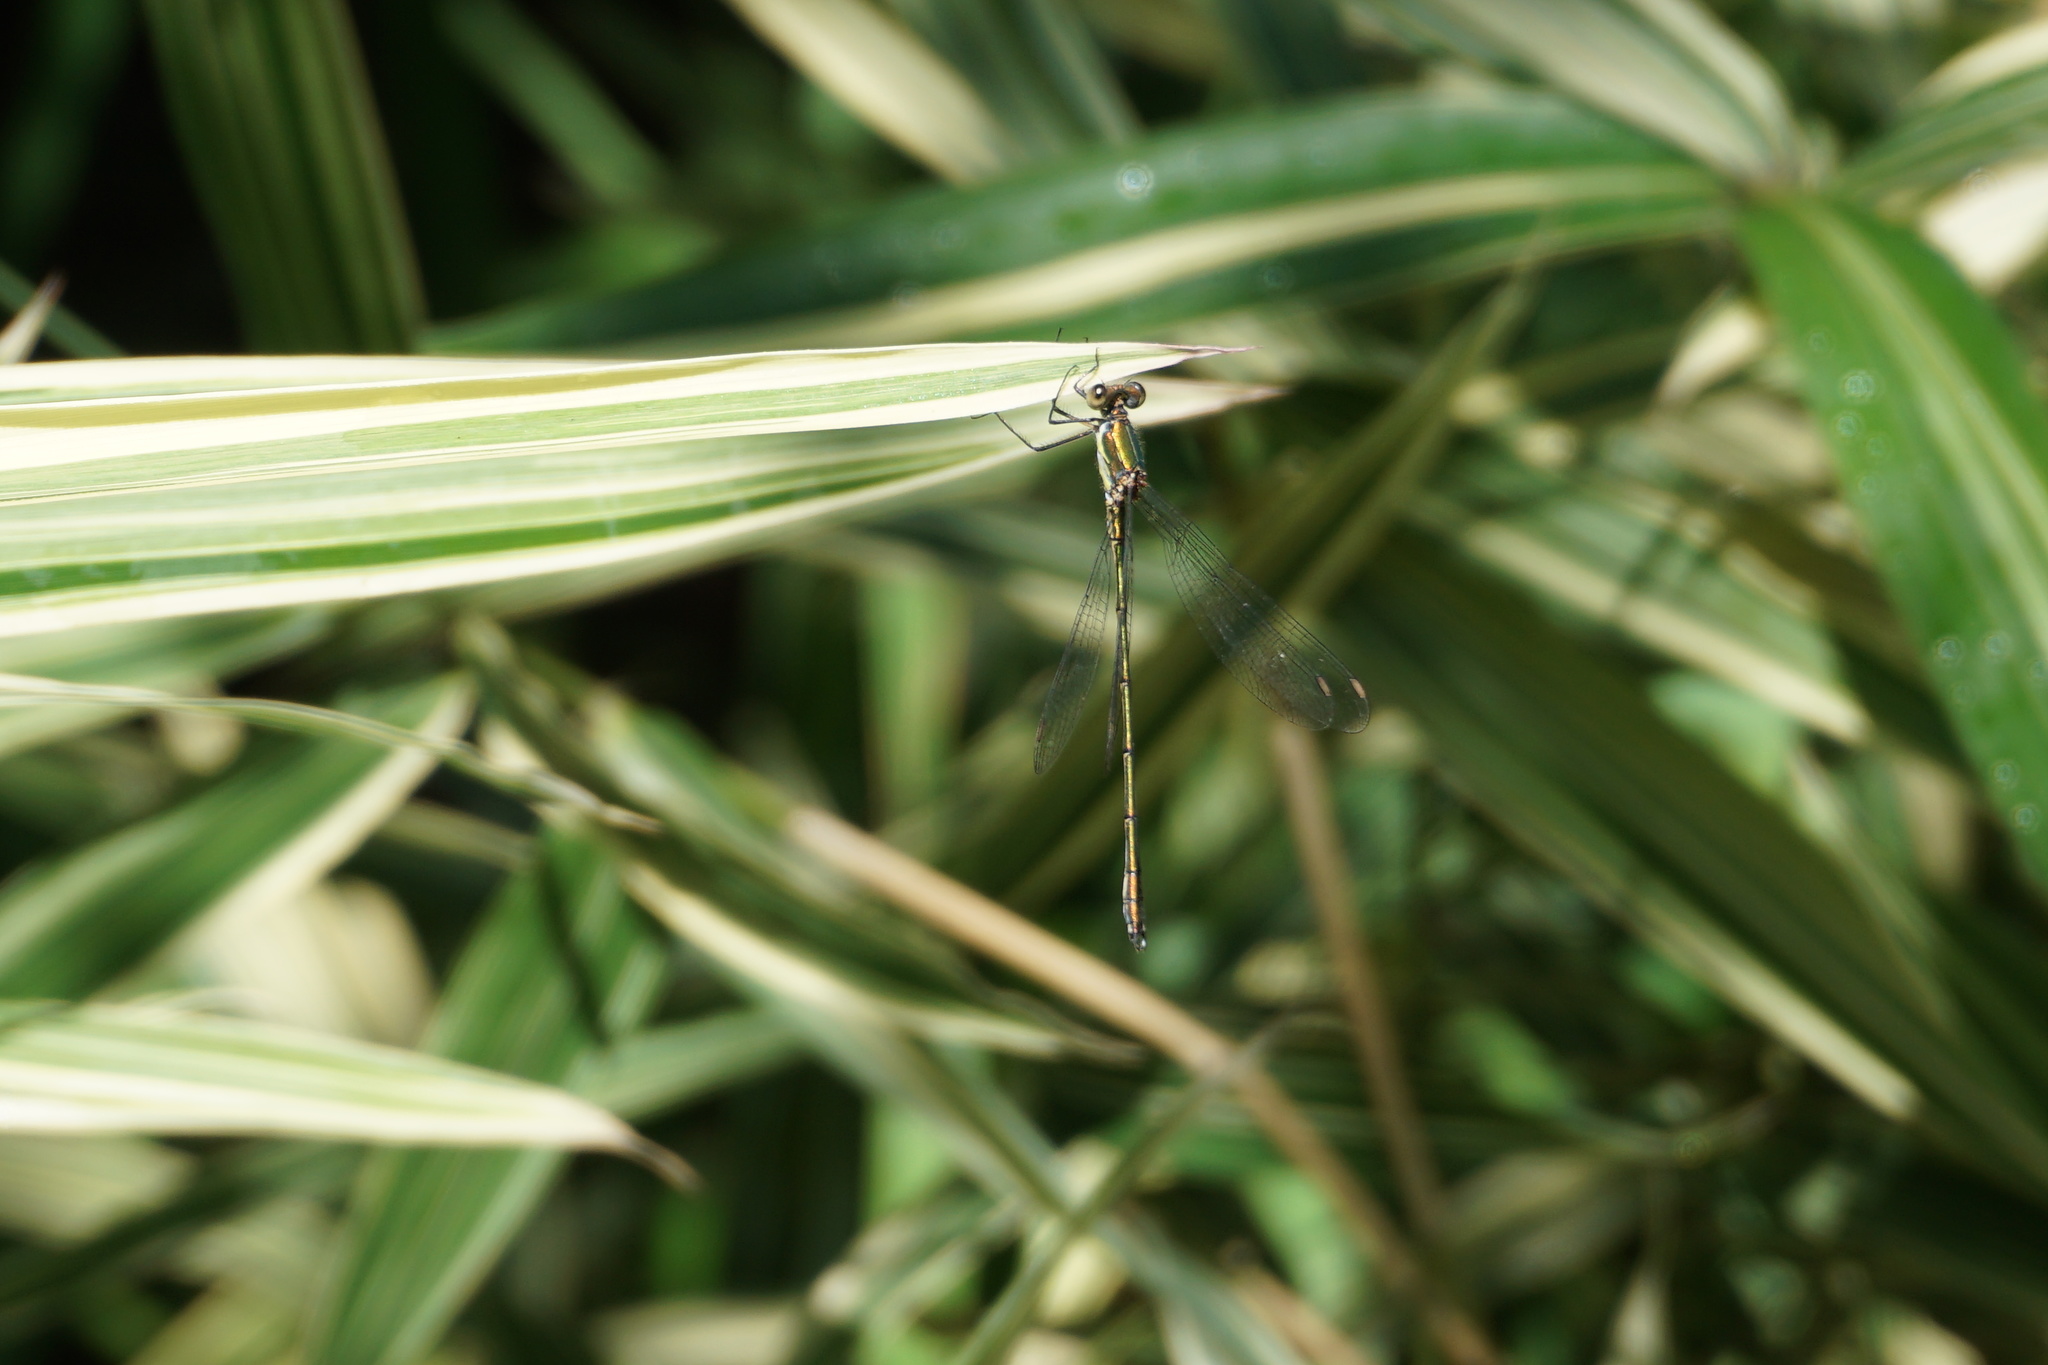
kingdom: Animalia
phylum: Arthropoda
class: Insecta
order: Odonata
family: Lestidae
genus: Chalcolestes
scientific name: Chalcolestes viridis
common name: Green emerald damselfly
